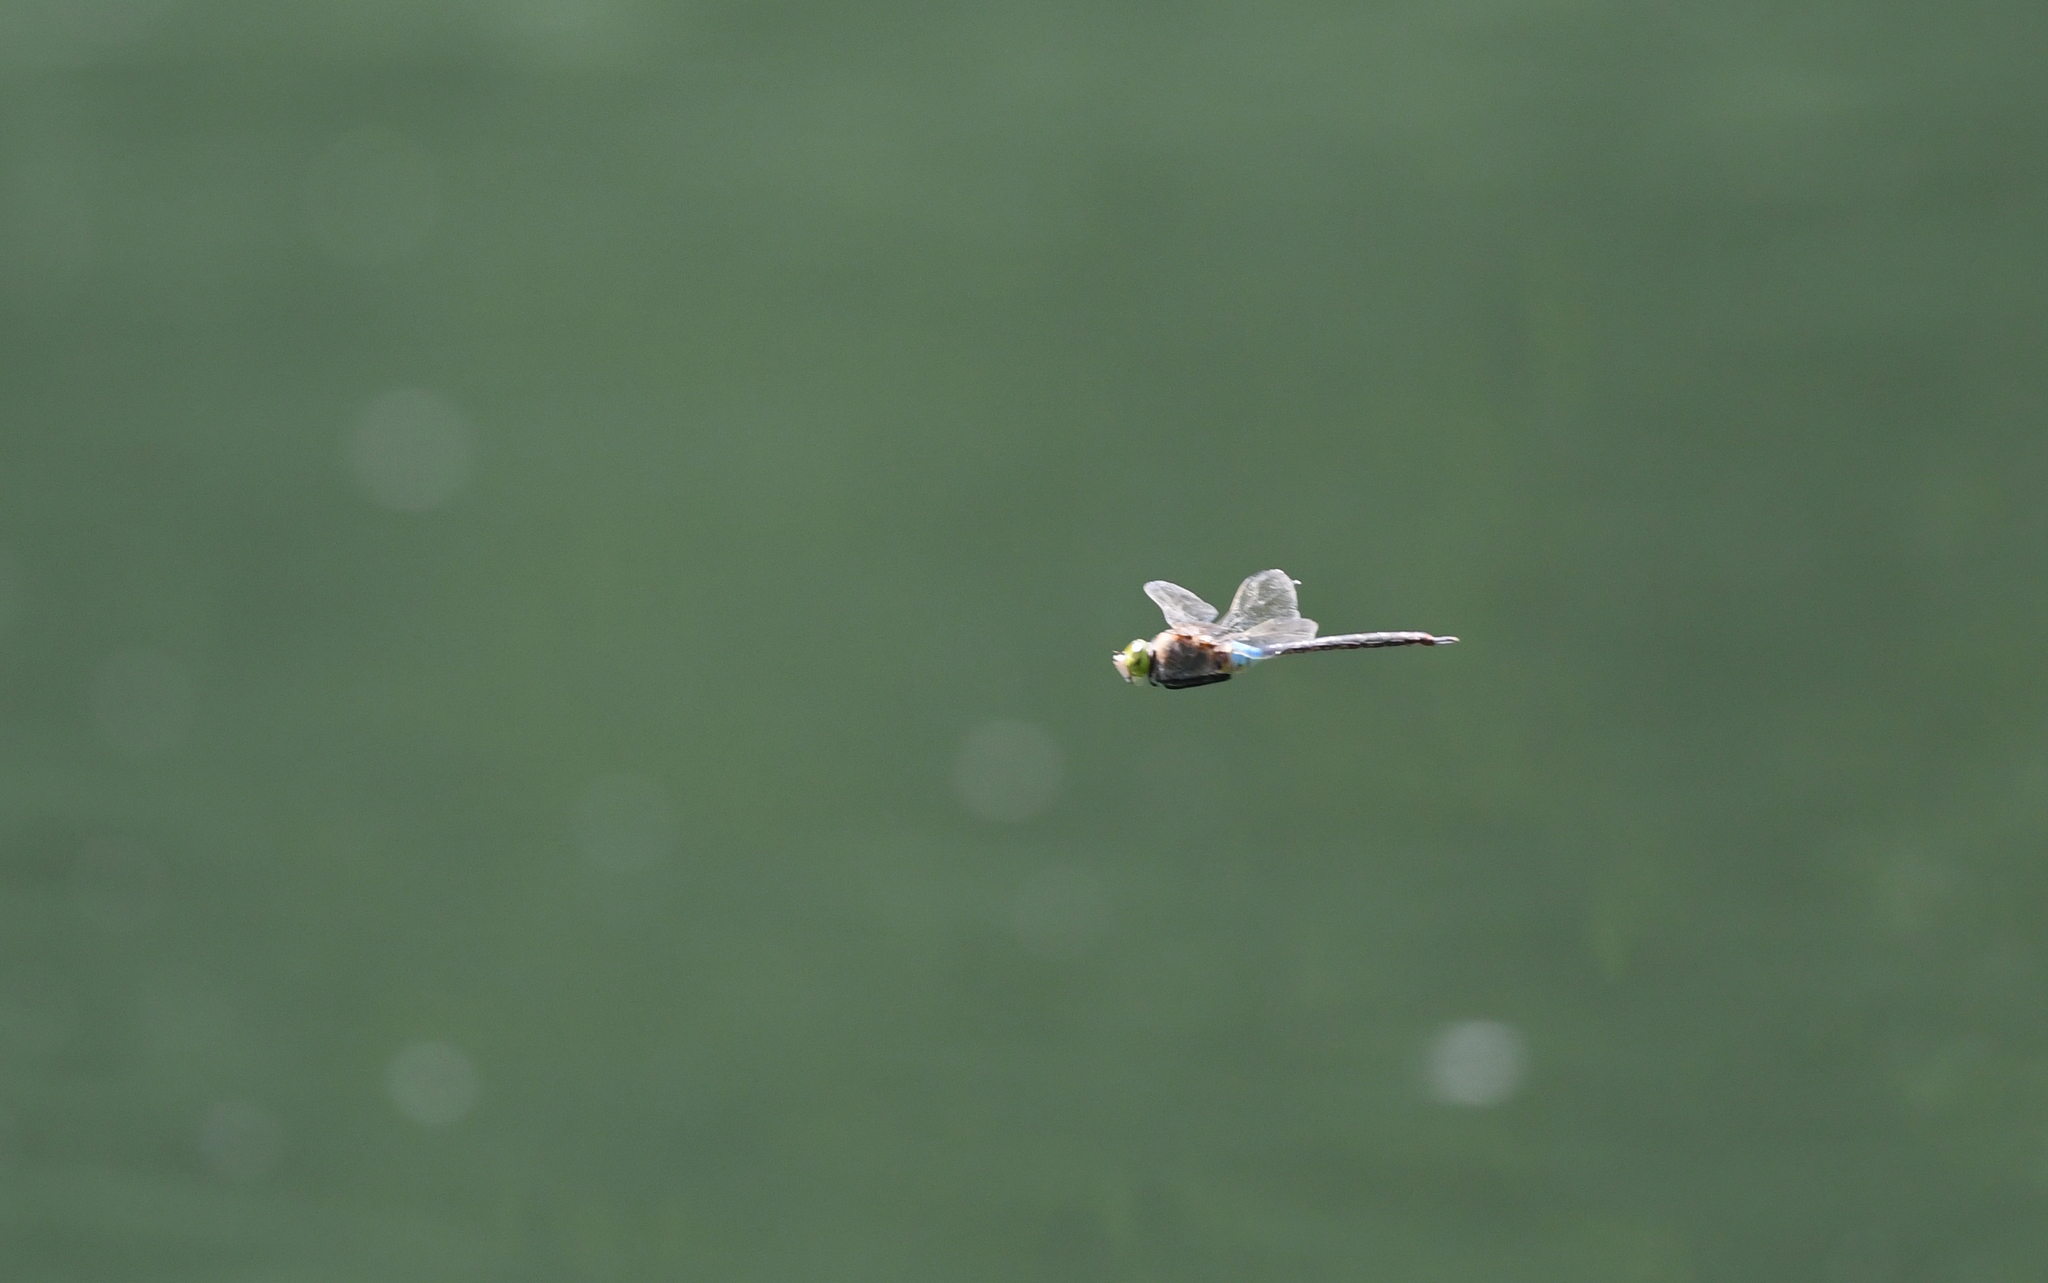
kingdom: Animalia
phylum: Arthropoda
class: Insecta
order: Odonata
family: Aeshnidae
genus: Anax
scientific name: Anax parthenope
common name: Lesser emperor
